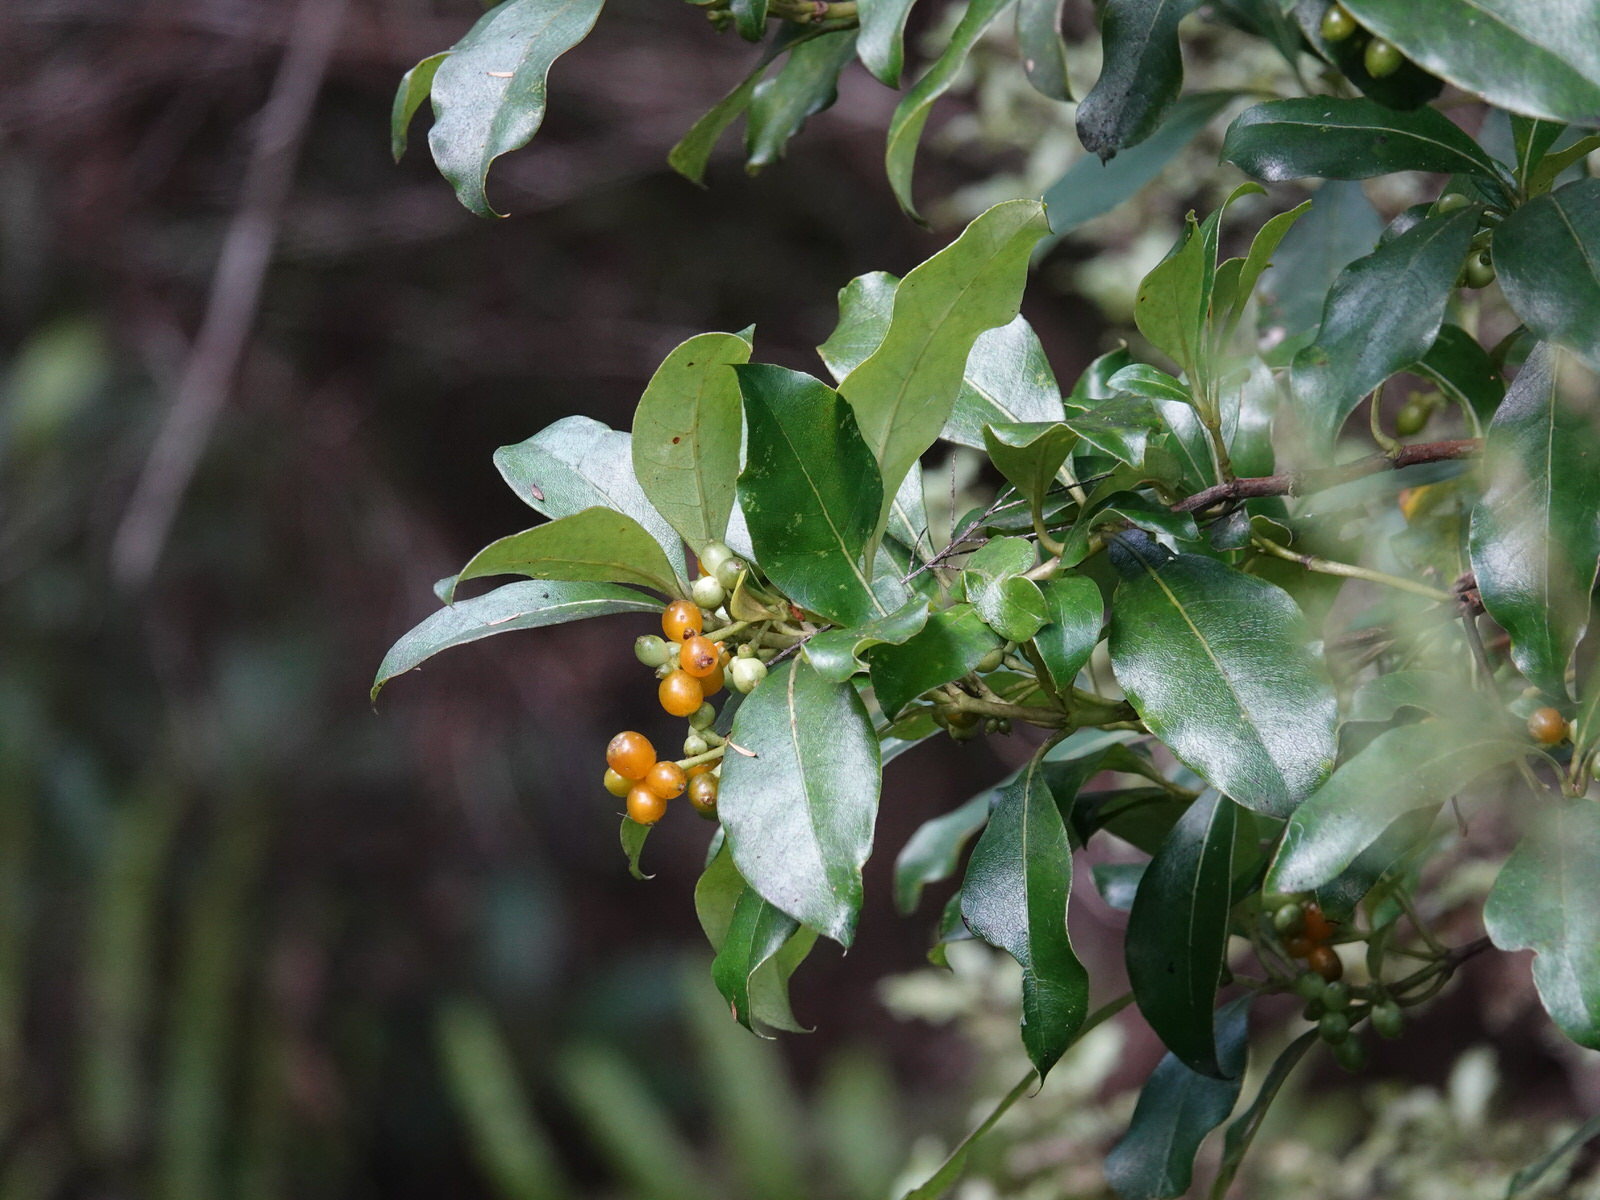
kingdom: Plantae
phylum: Tracheophyta
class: Magnoliopsida
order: Gentianales
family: Rubiaceae
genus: Coprosma
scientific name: Coprosma lucida
